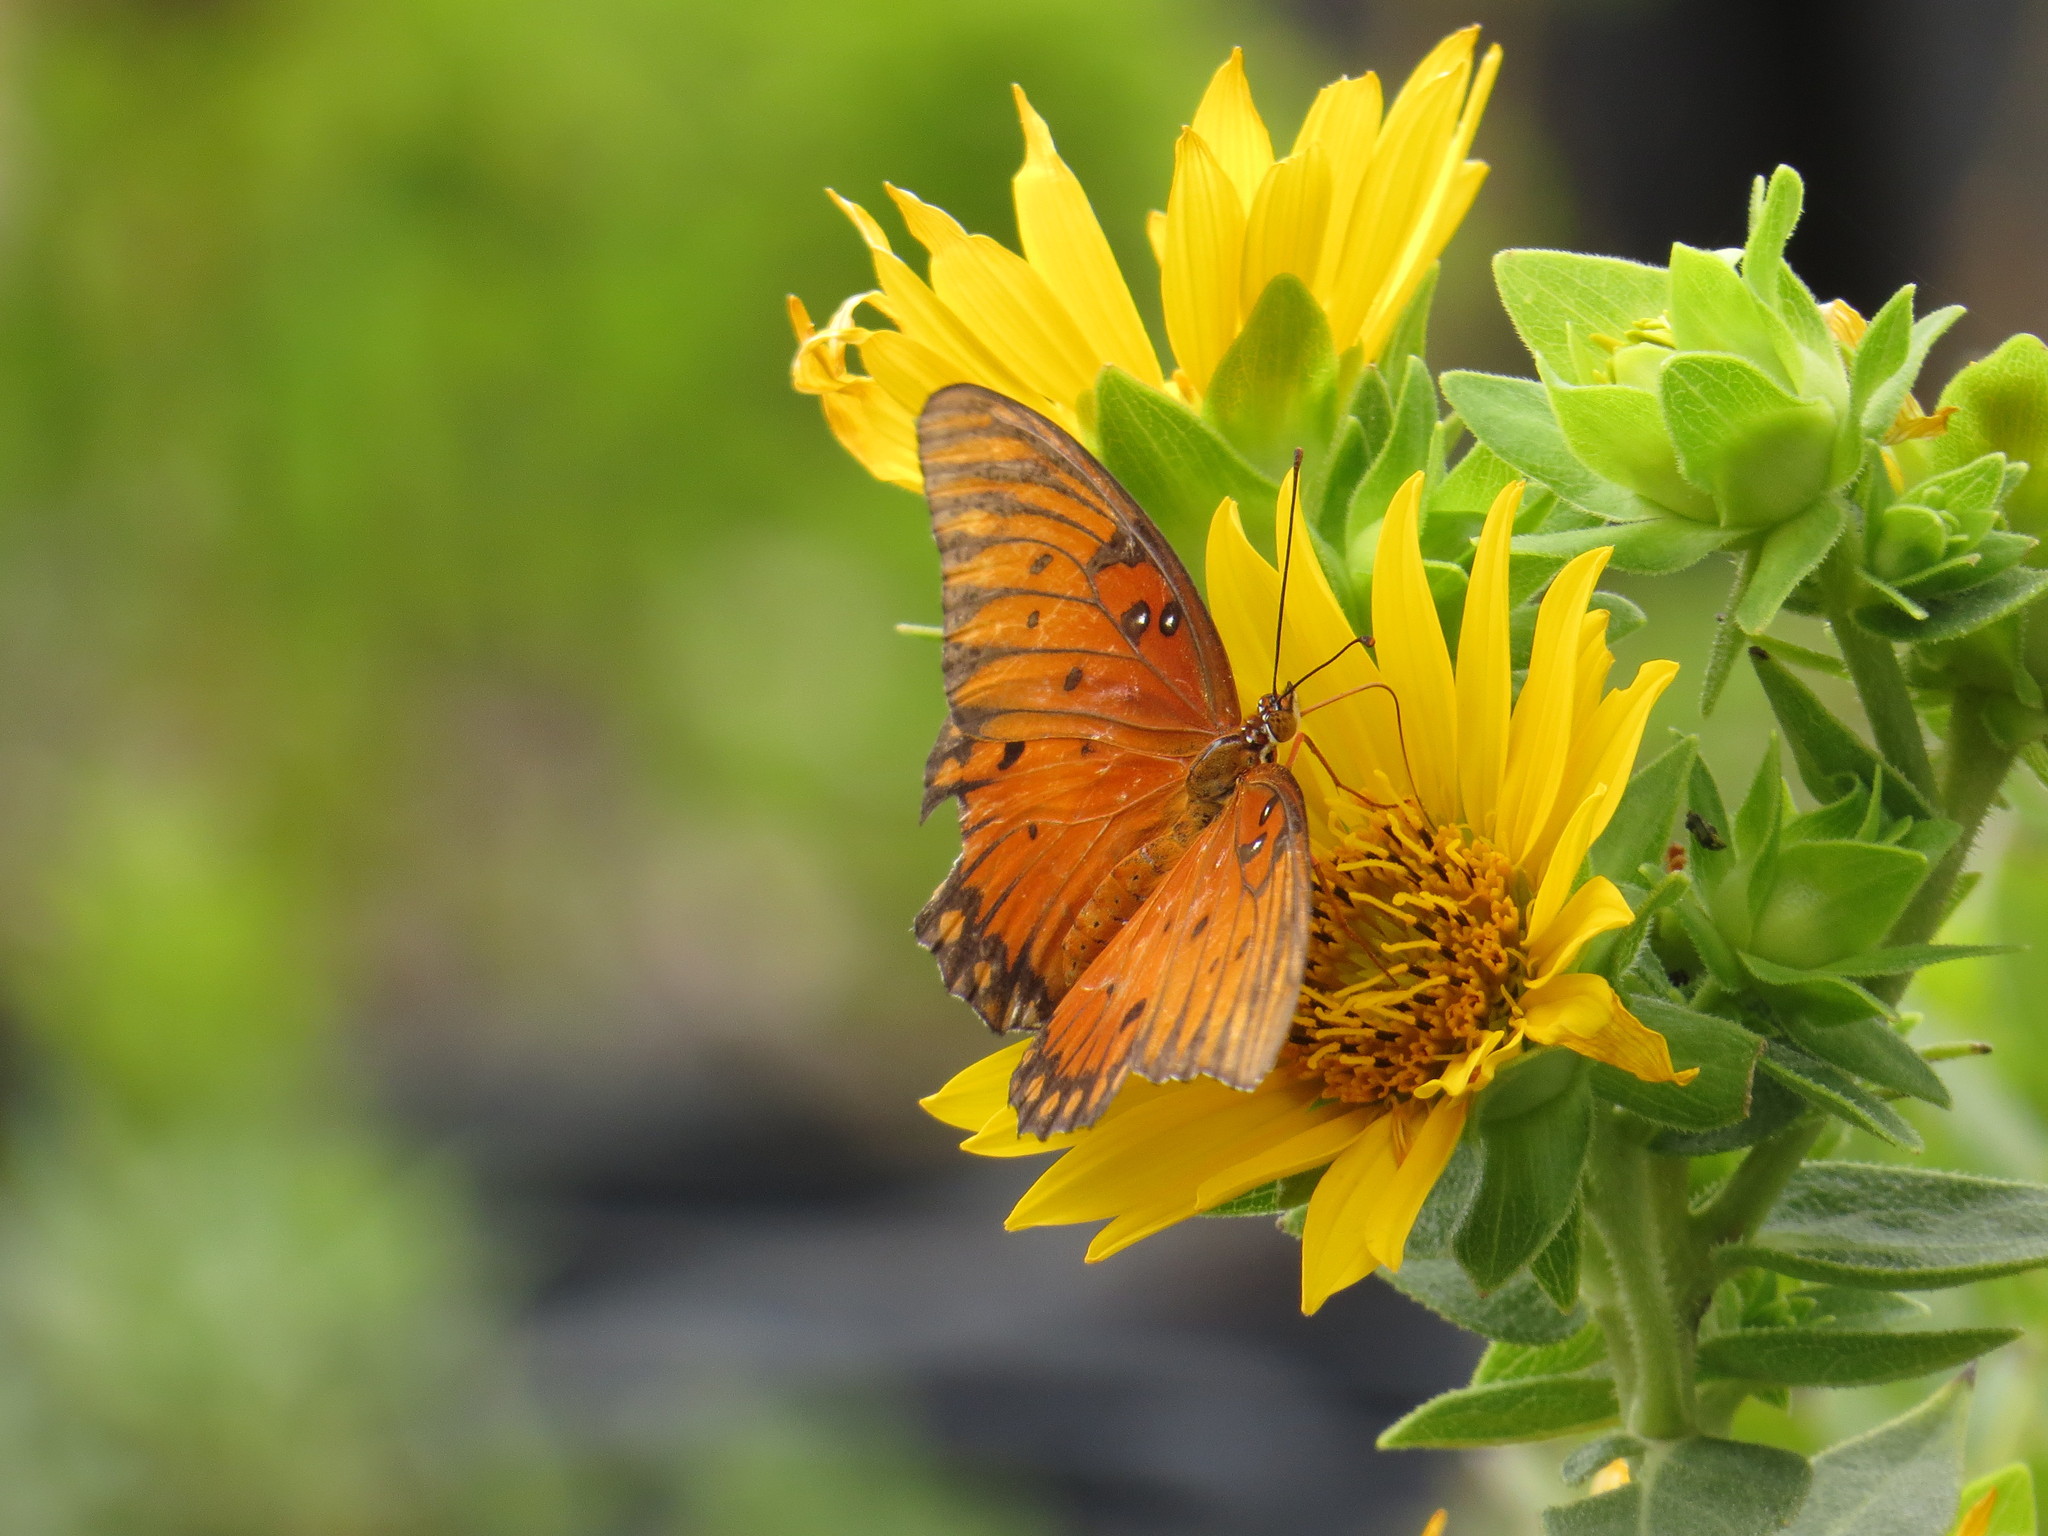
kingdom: Animalia
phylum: Arthropoda
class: Insecta
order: Lepidoptera
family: Nymphalidae
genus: Dione
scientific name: Dione vanillae
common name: Gulf fritillary
